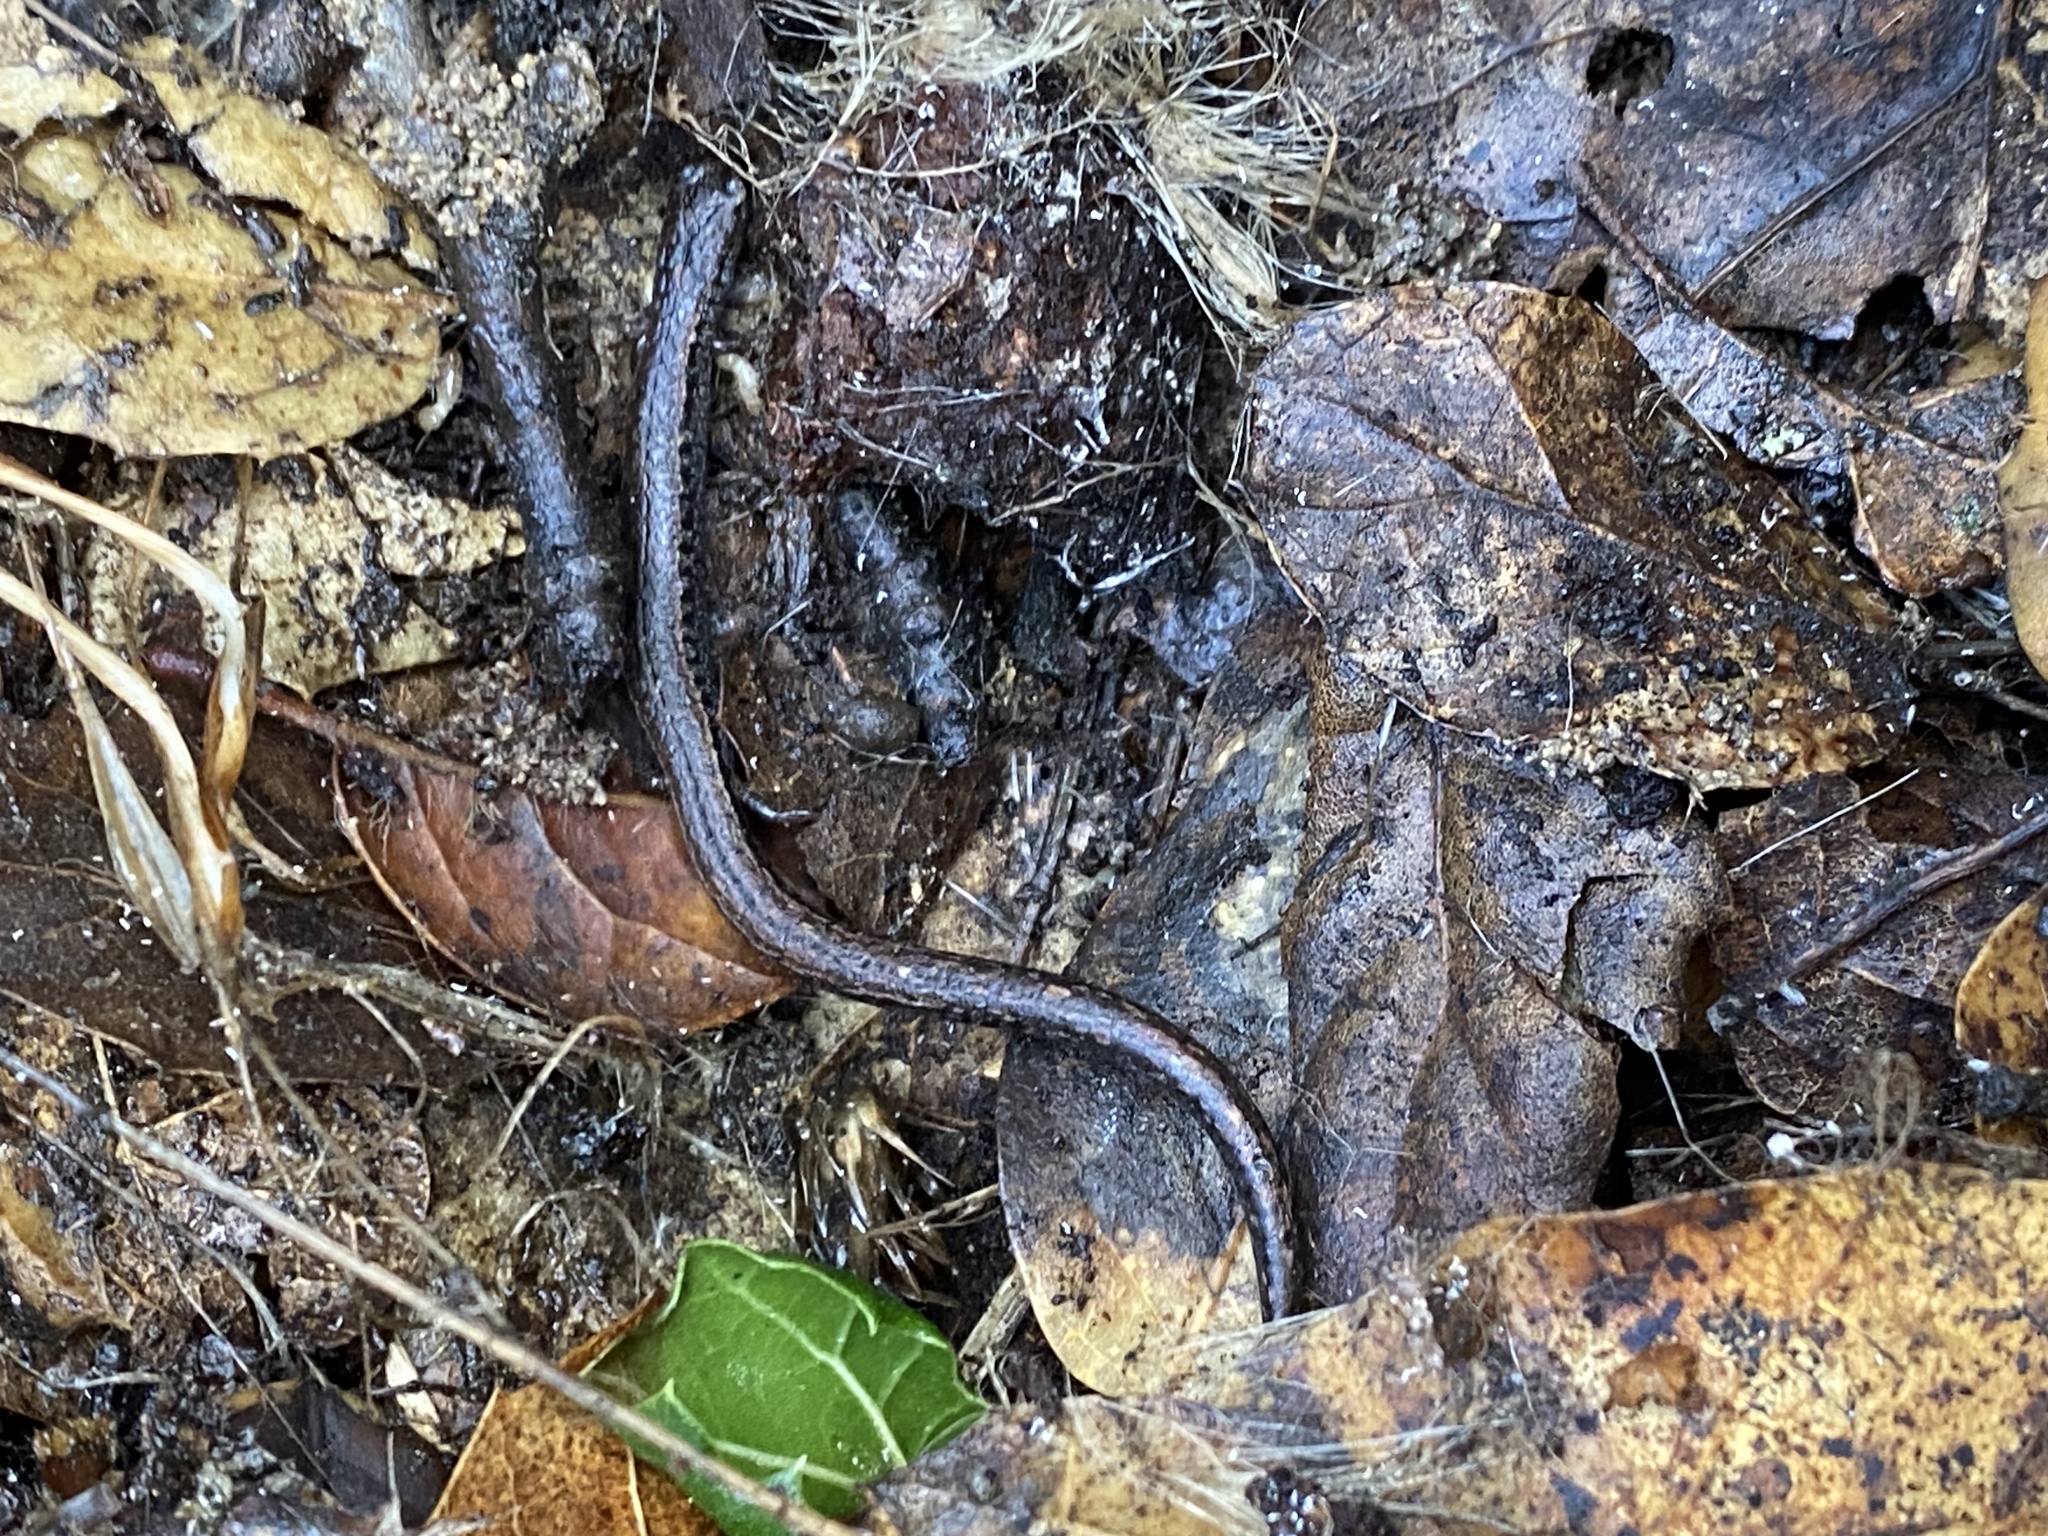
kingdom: Animalia
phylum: Chordata
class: Amphibia
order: Caudata
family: Plethodontidae
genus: Batrachoseps
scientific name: Batrachoseps attenuatus
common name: California slender salamander
